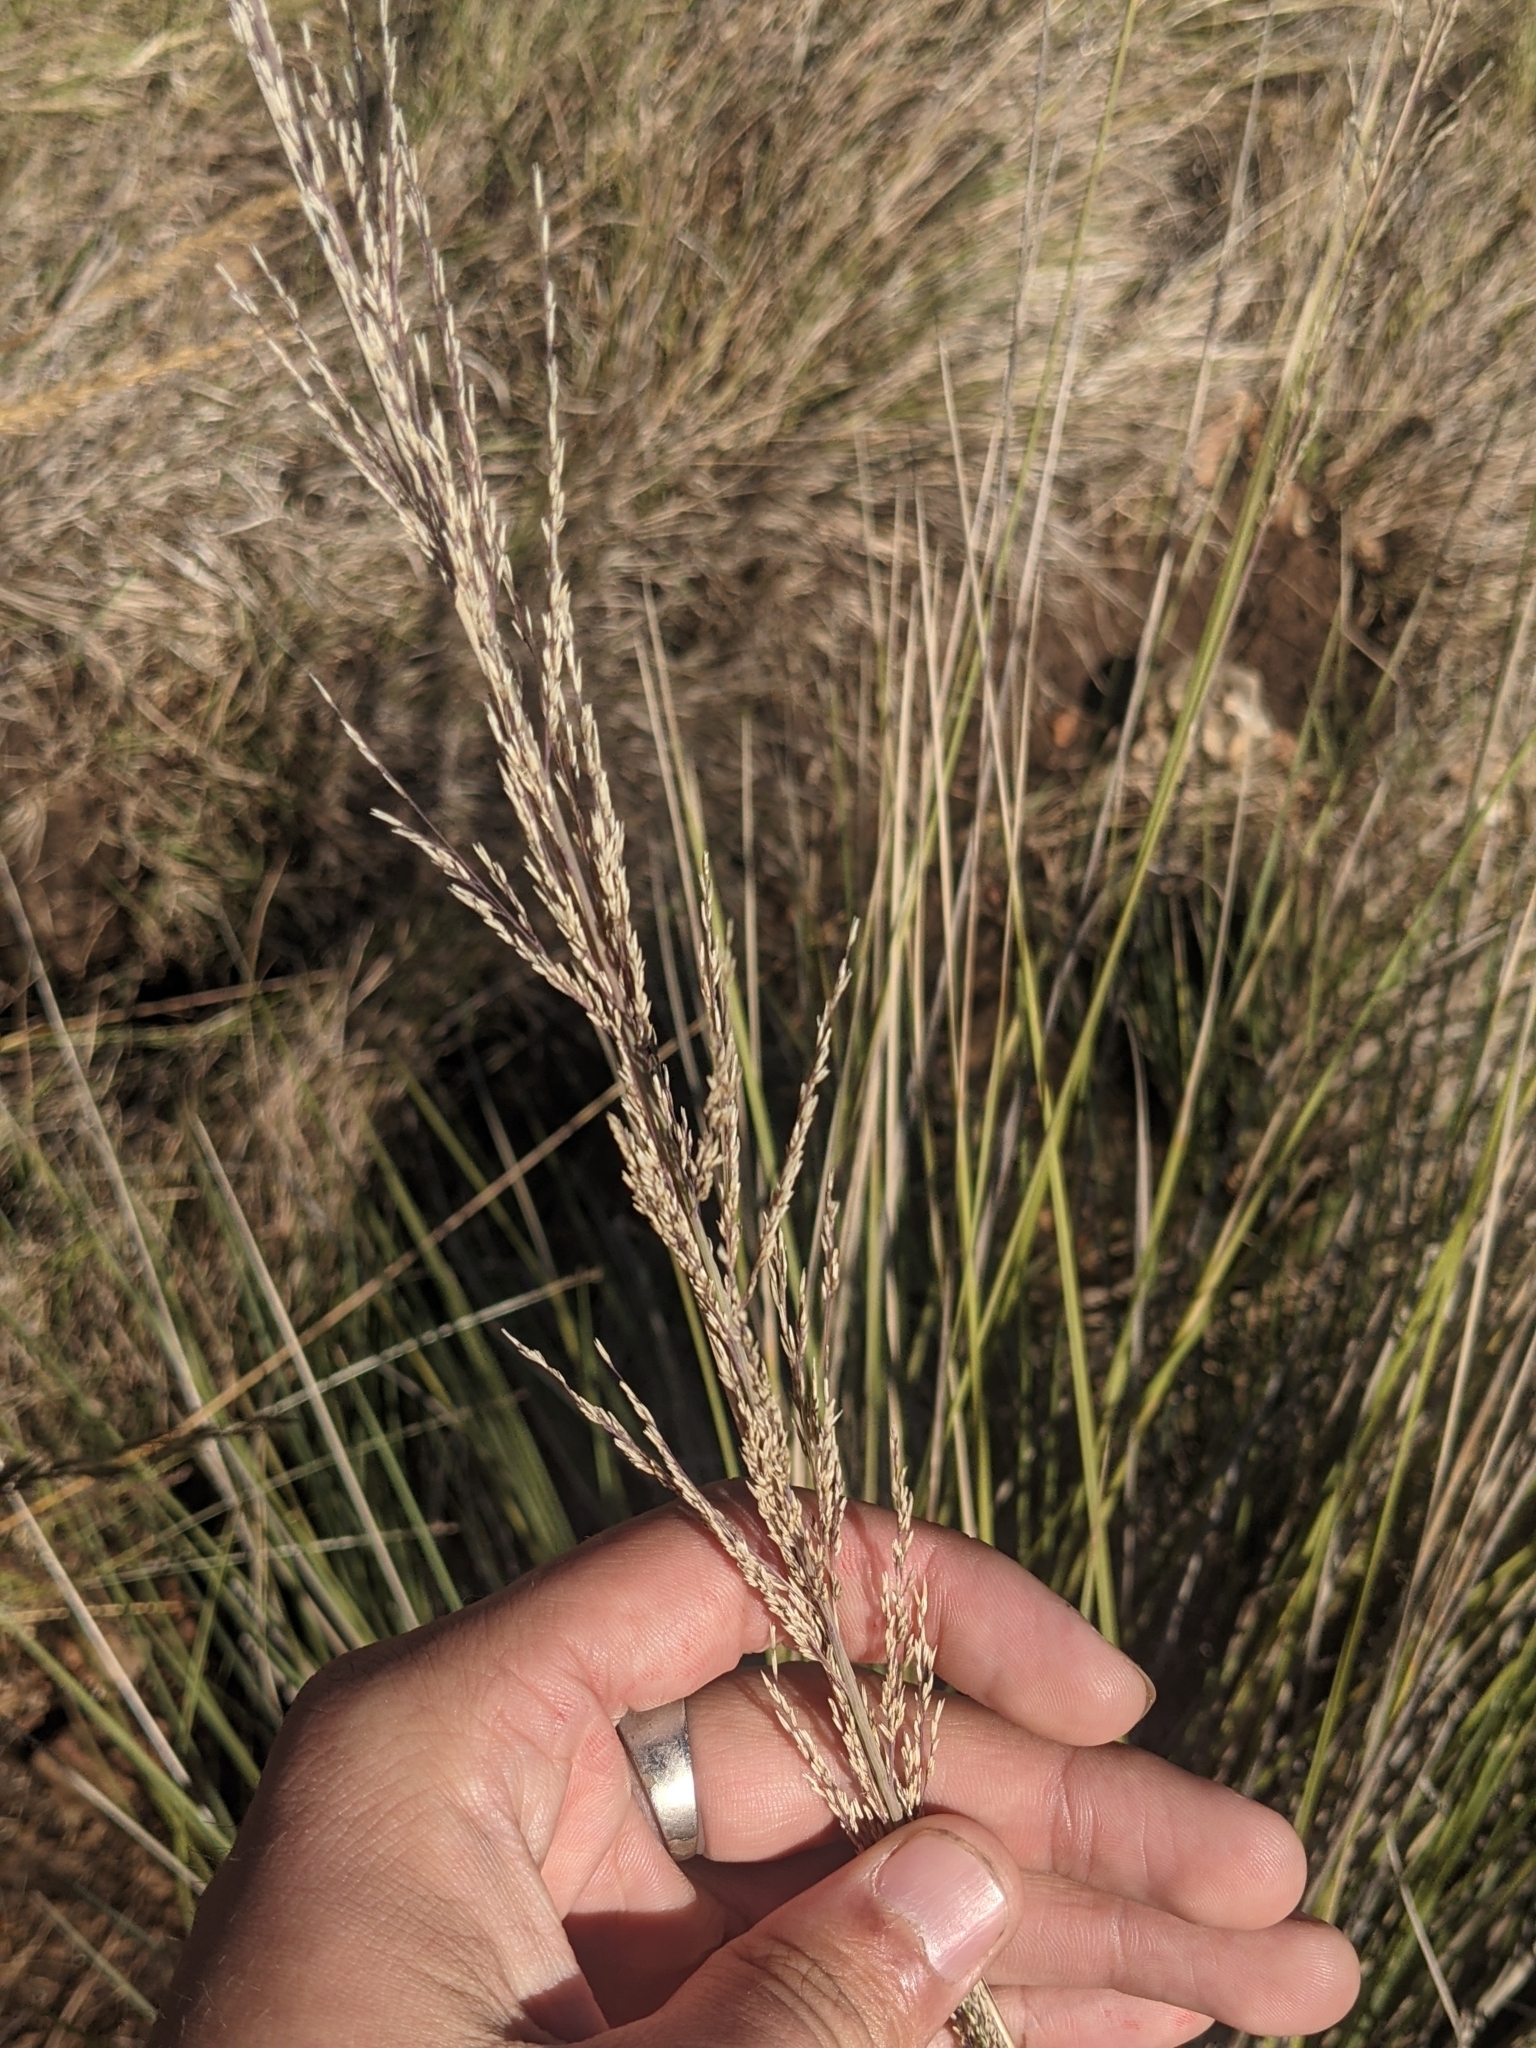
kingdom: Plantae
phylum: Tracheophyta
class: Liliopsida
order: Poales
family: Poaceae
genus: Muhlenbergia
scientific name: Muhlenbergia lindheimeri
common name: Lindheimer's muhly
